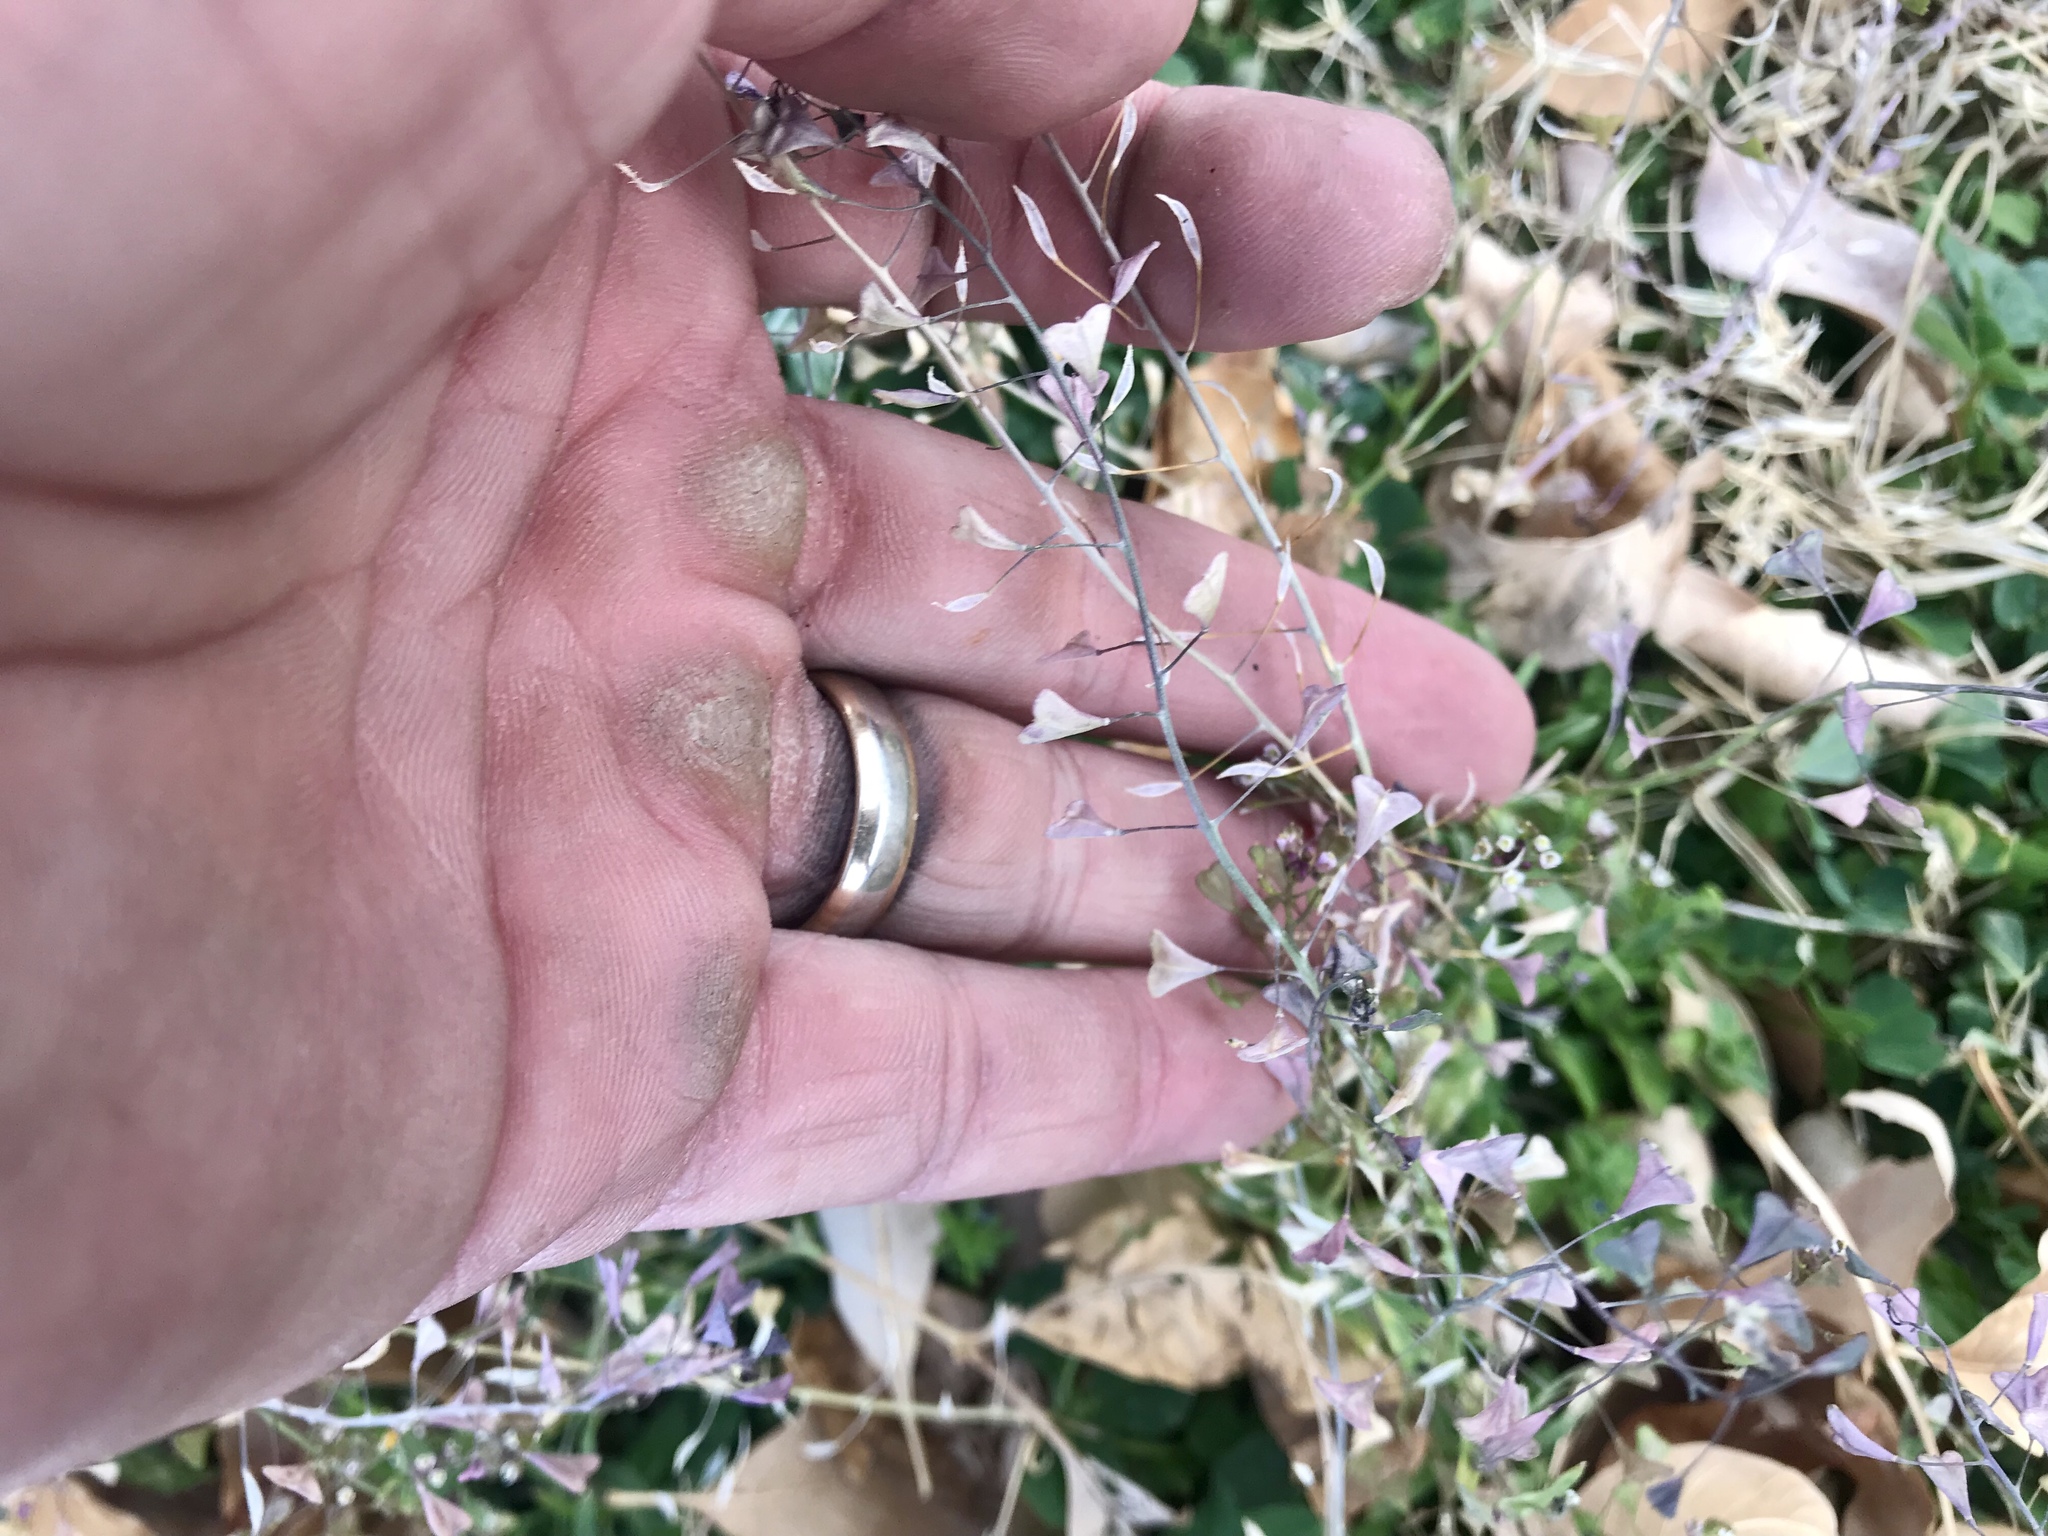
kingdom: Plantae
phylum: Tracheophyta
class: Magnoliopsida
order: Brassicales
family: Brassicaceae
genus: Capsella
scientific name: Capsella bursa-pastoris
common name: Shepherd's purse
